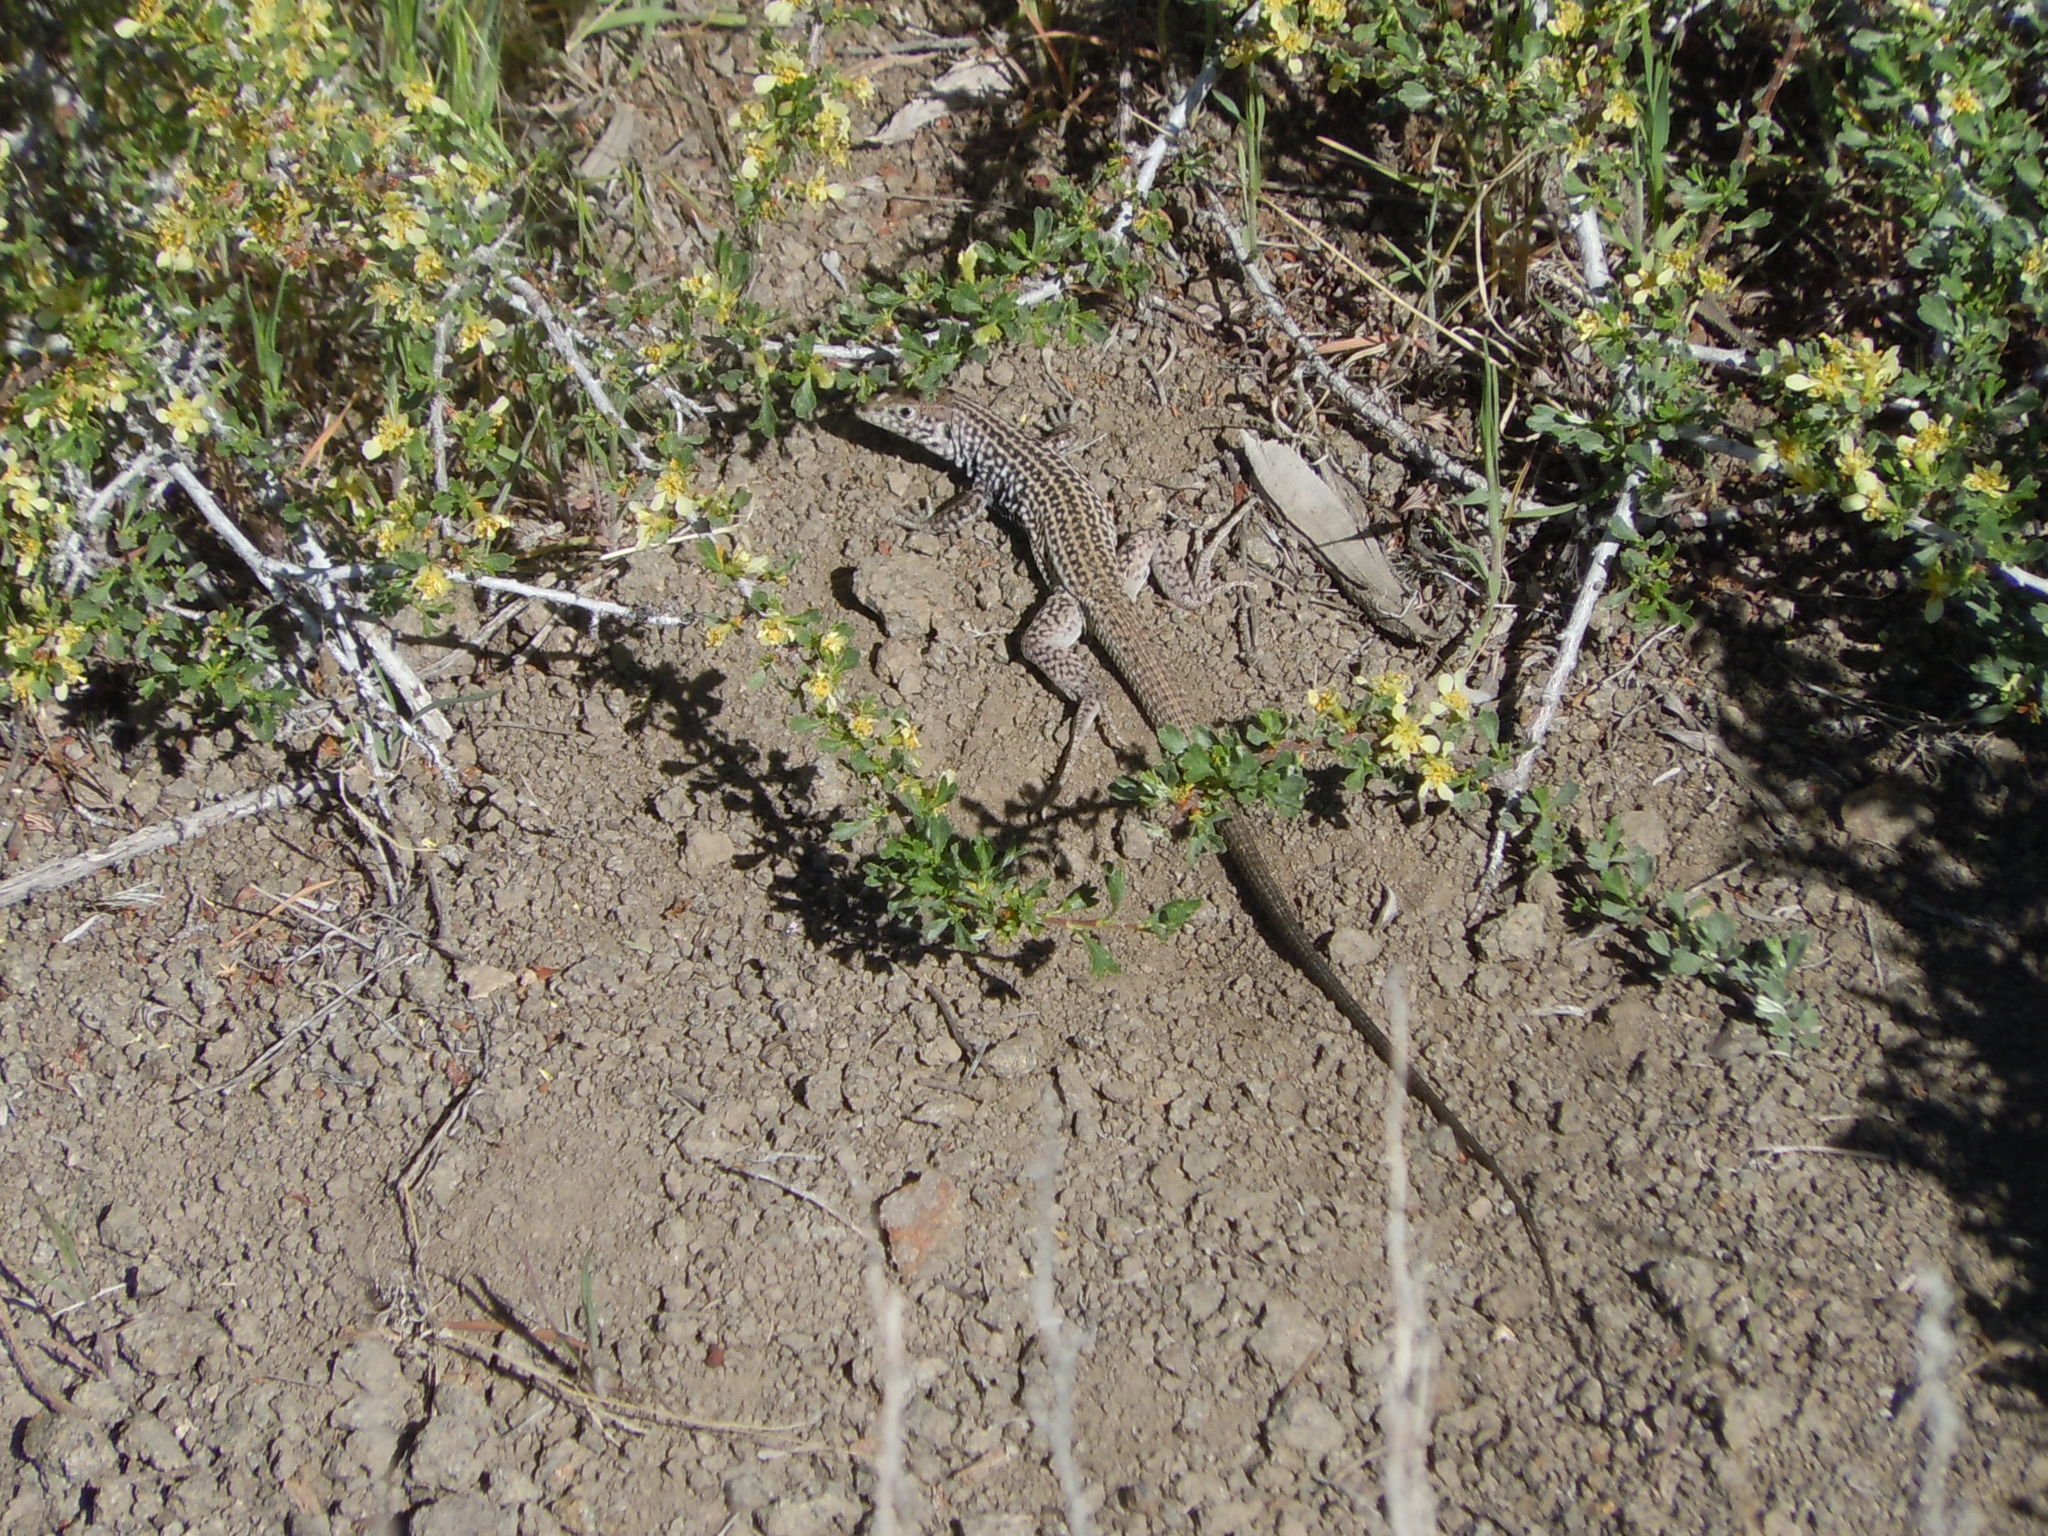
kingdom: Animalia
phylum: Chordata
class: Squamata
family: Teiidae
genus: Aspidoscelis
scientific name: Aspidoscelis tigris
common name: Tiger whiptail
